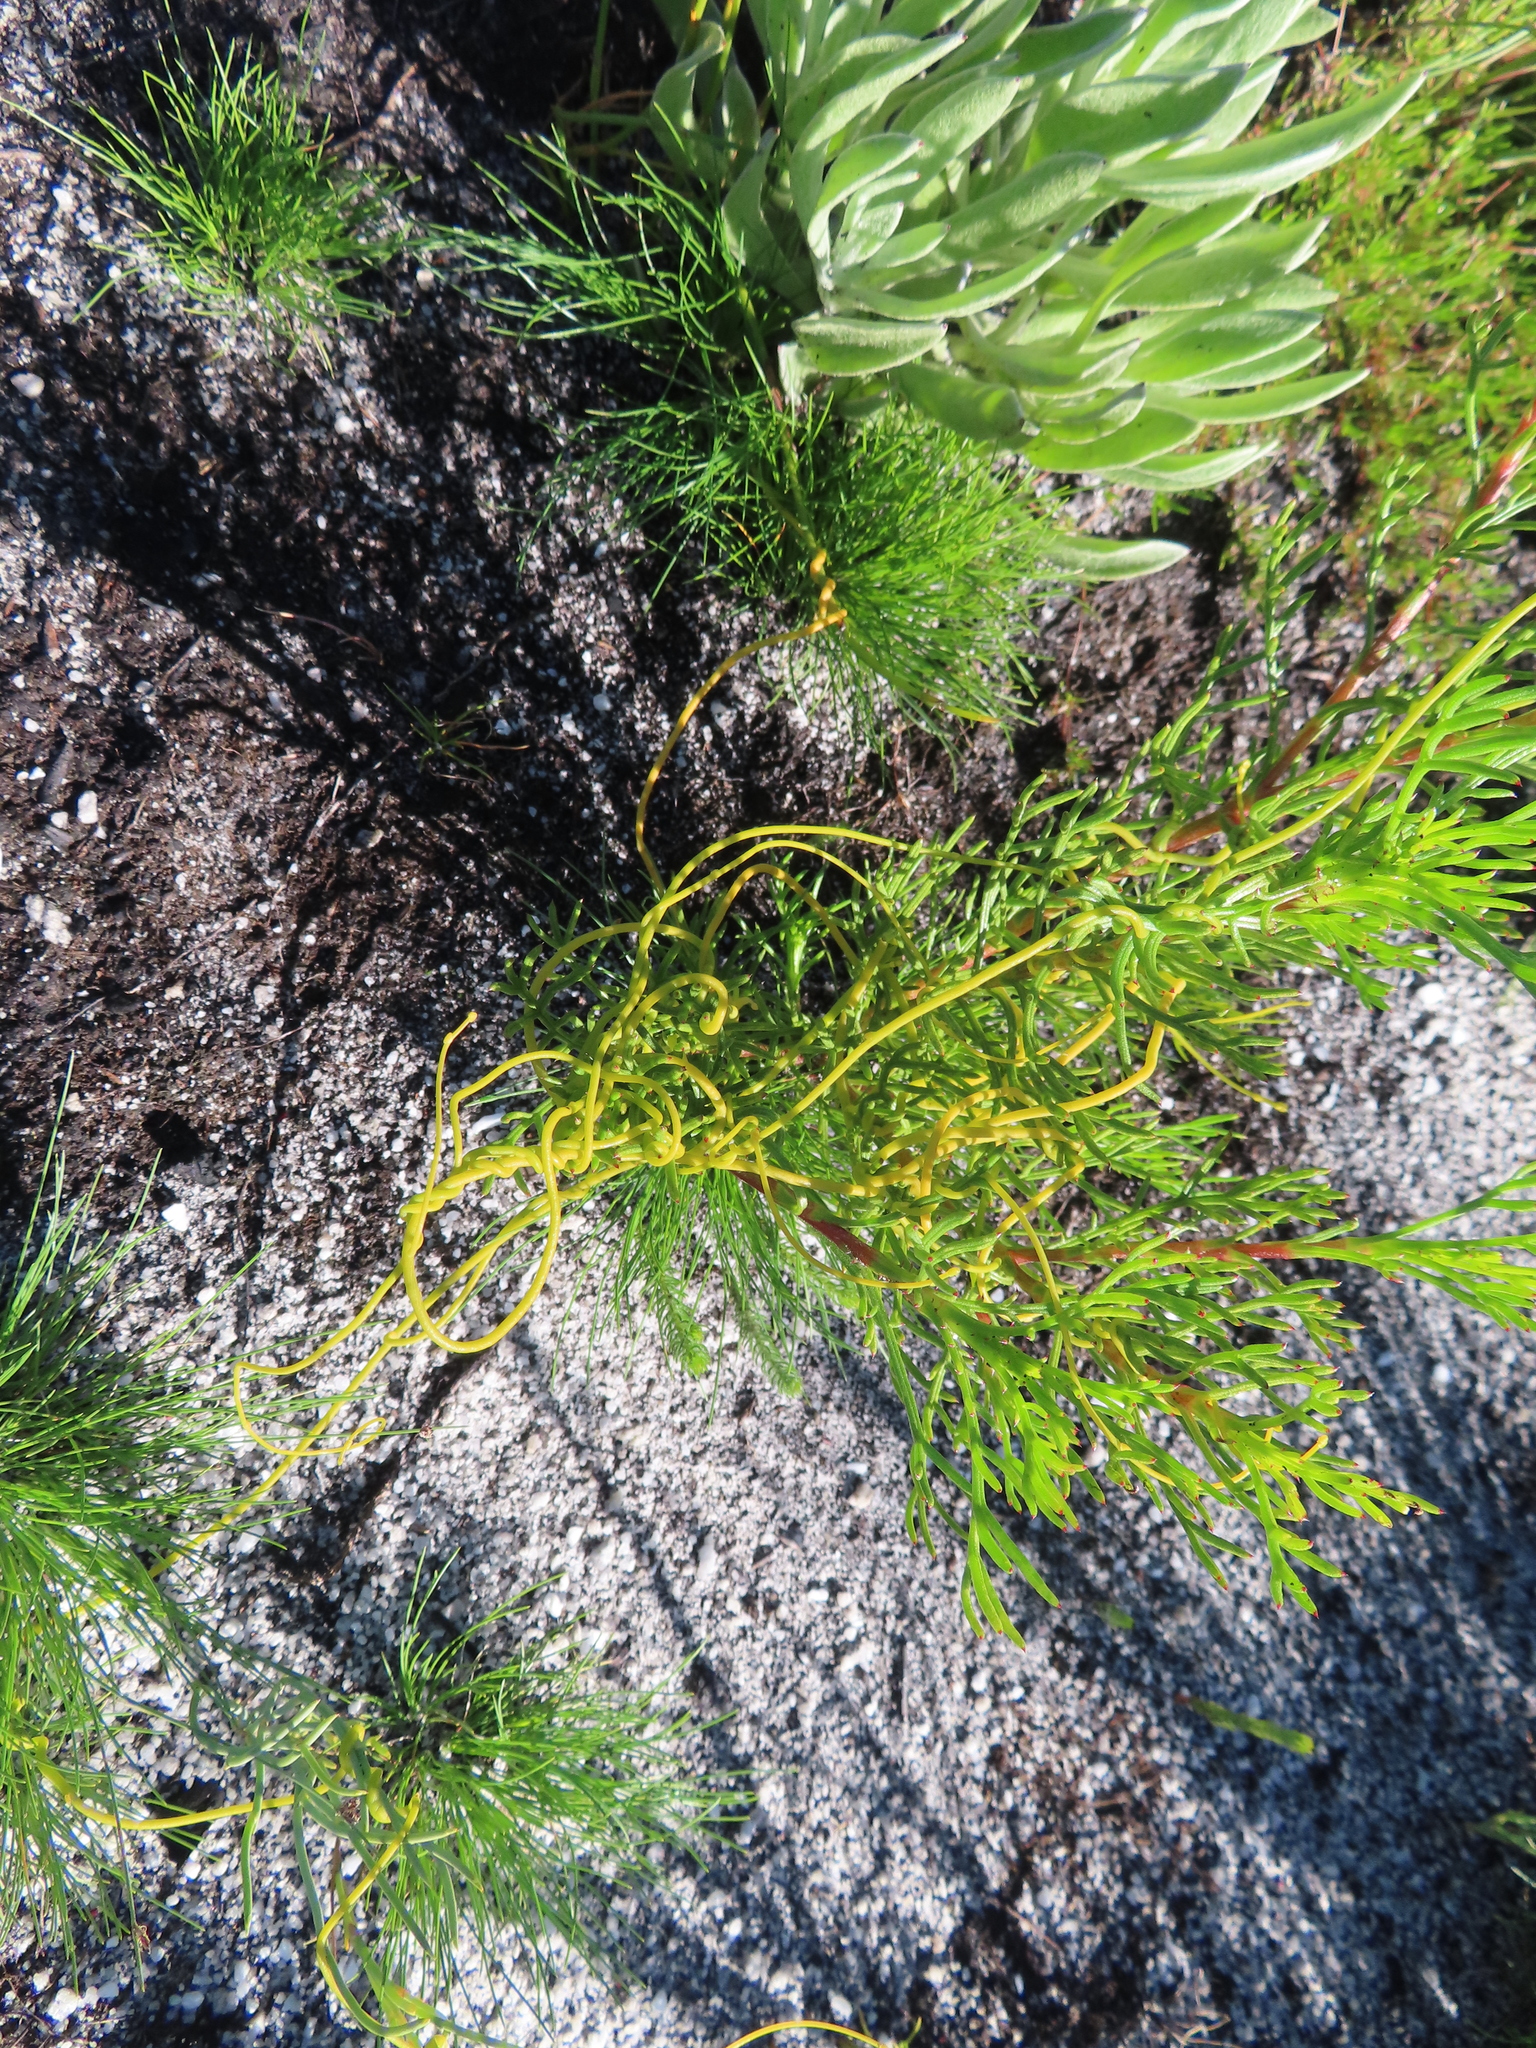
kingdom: Plantae
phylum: Tracheophyta
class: Magnoliopsida
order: Laurales
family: Lauraceae
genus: Cassytha
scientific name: Cassytha ciliolata
